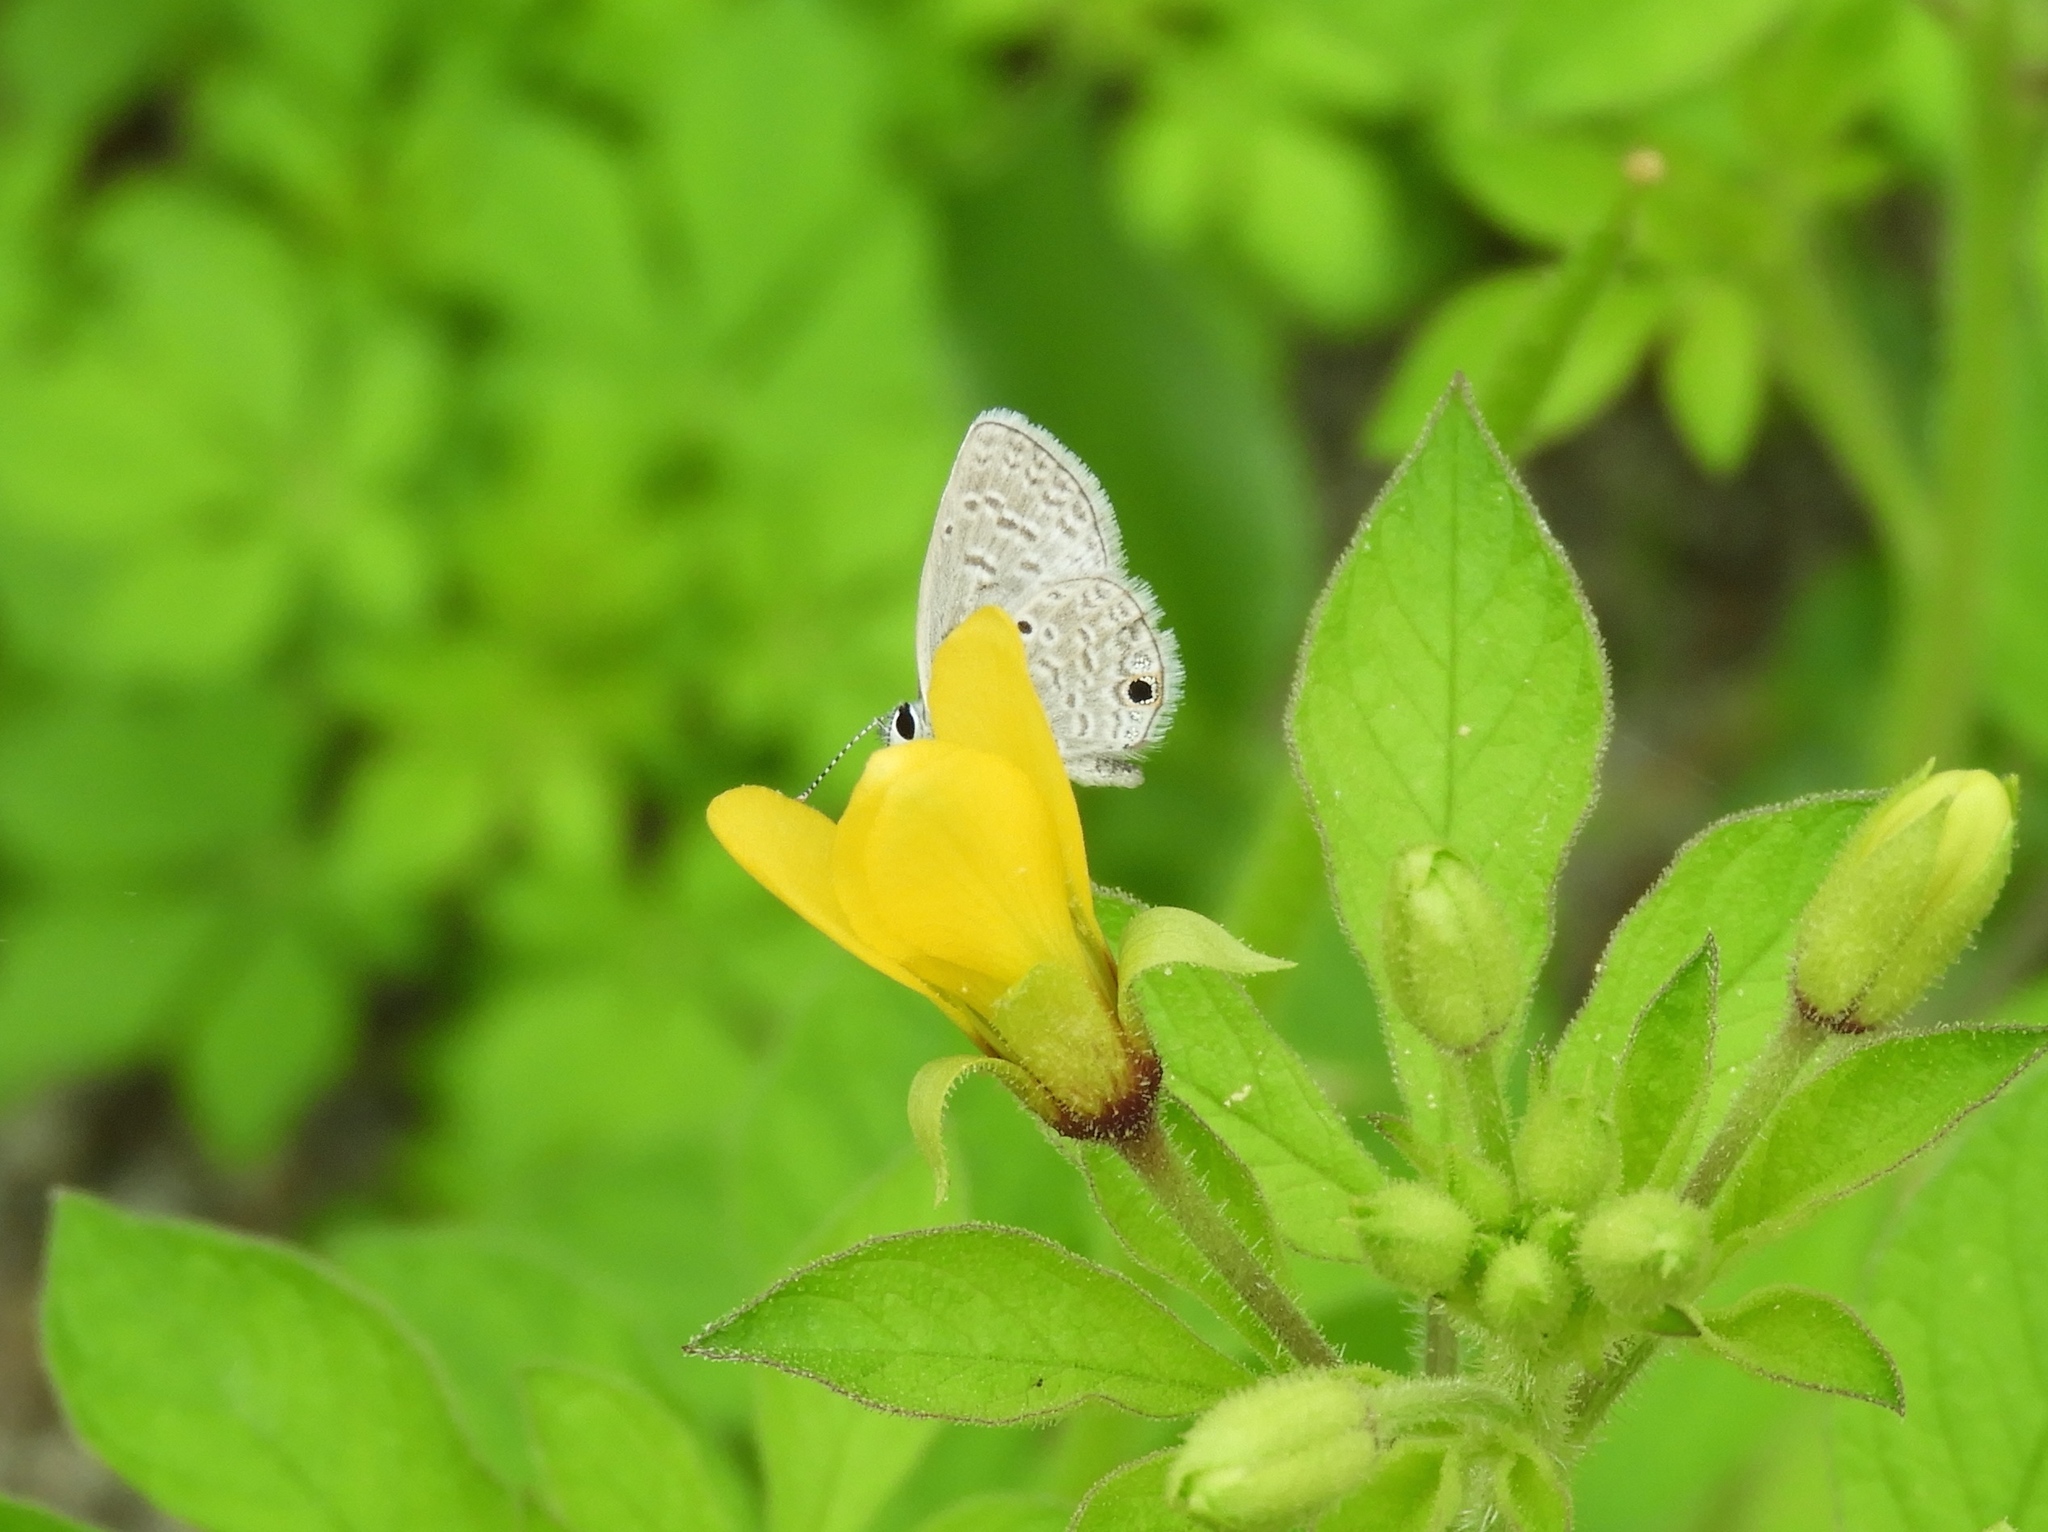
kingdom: Animalia
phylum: Arthropoda
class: Insecta
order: Lepidoptera
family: Lycaenidae
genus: Hemiargus
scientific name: Hemiargus ceraunus
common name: Ceraunus blue
